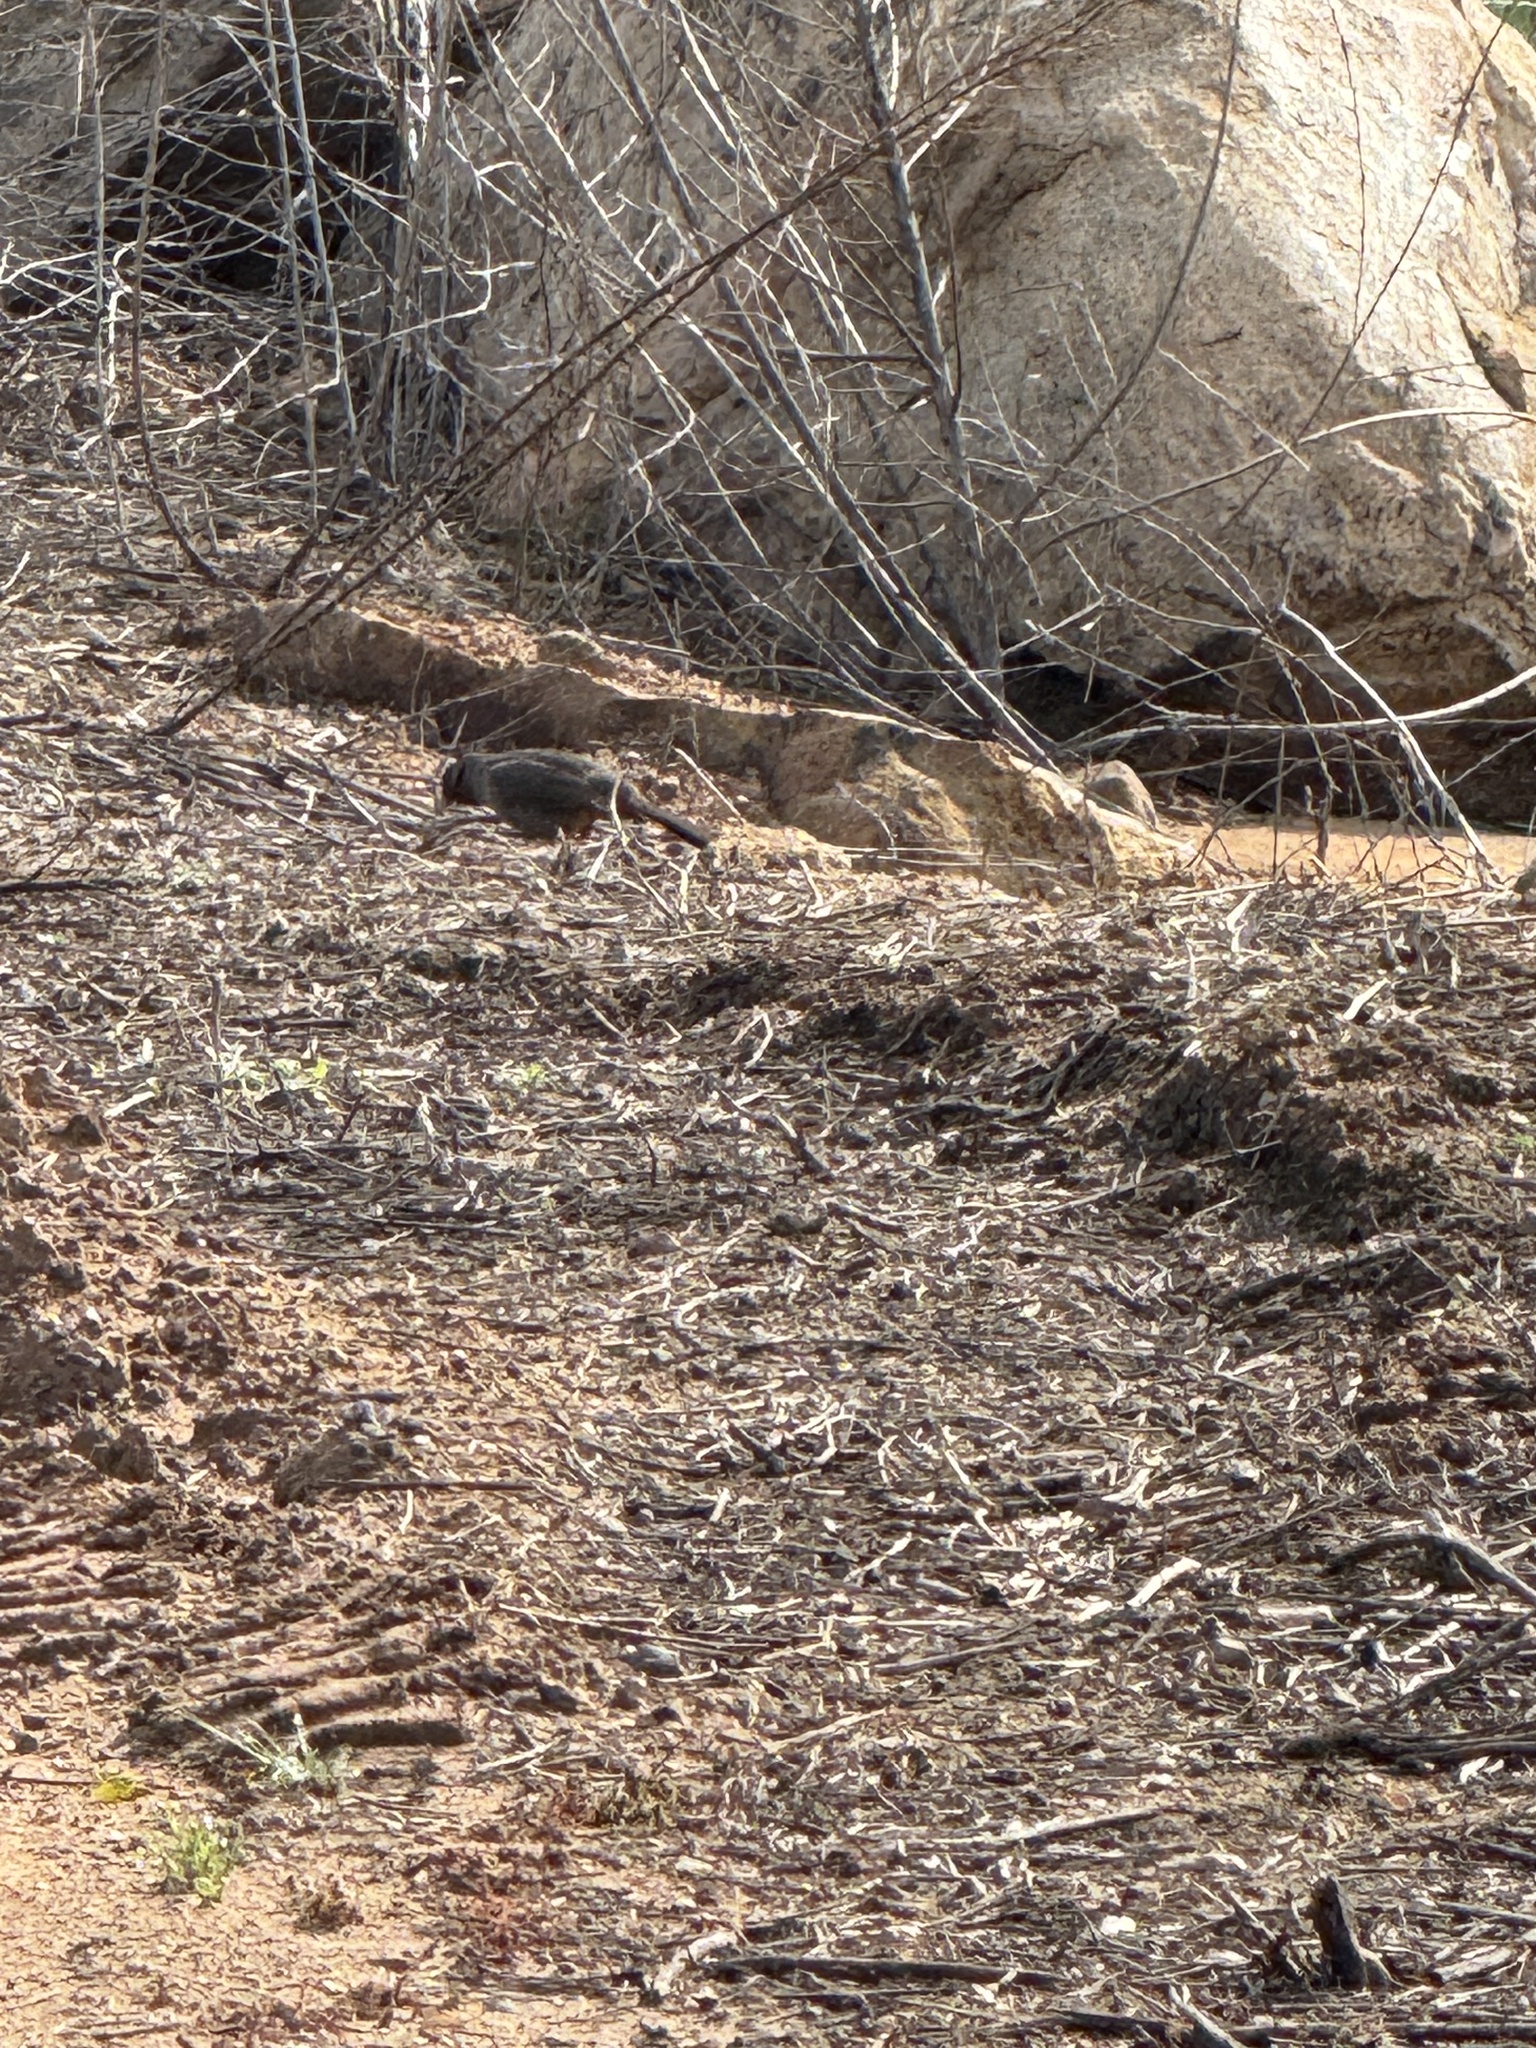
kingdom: Animalia
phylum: Chordata
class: Aves
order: Passeriformes
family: Passerellidae
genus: Melozone
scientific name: Melozone crissalis
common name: California towhee
